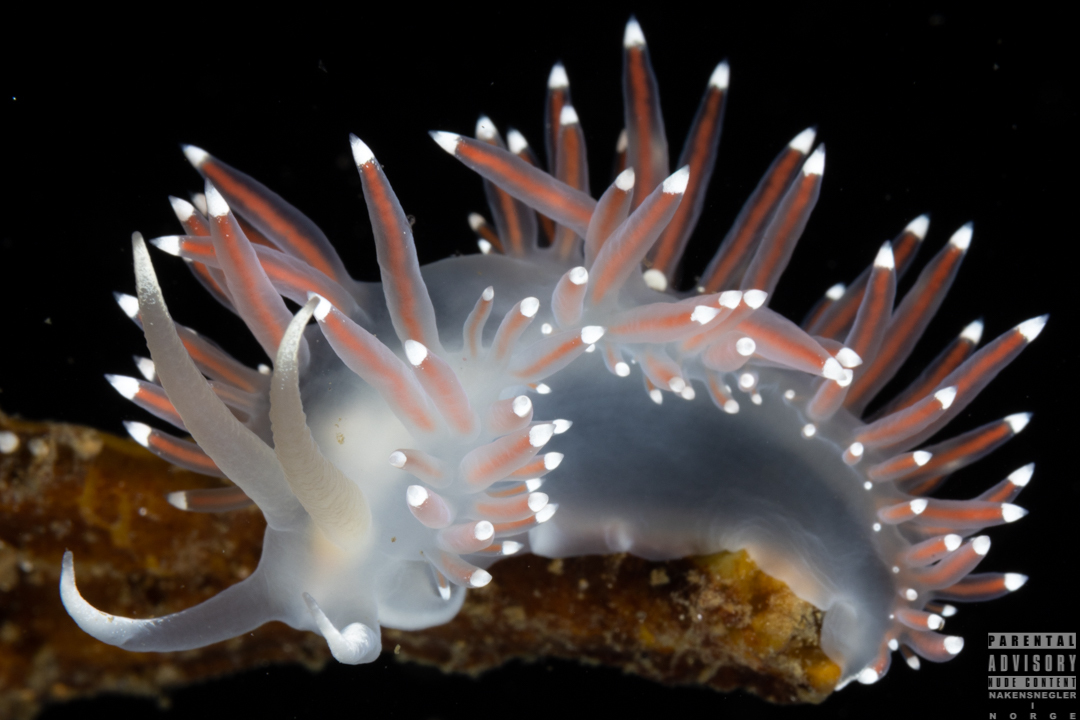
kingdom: Animalia
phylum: Mollusca
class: Gastropoda
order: Nudibranchia
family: Coryphellidae
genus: Coryphella
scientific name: Coryphella browni
